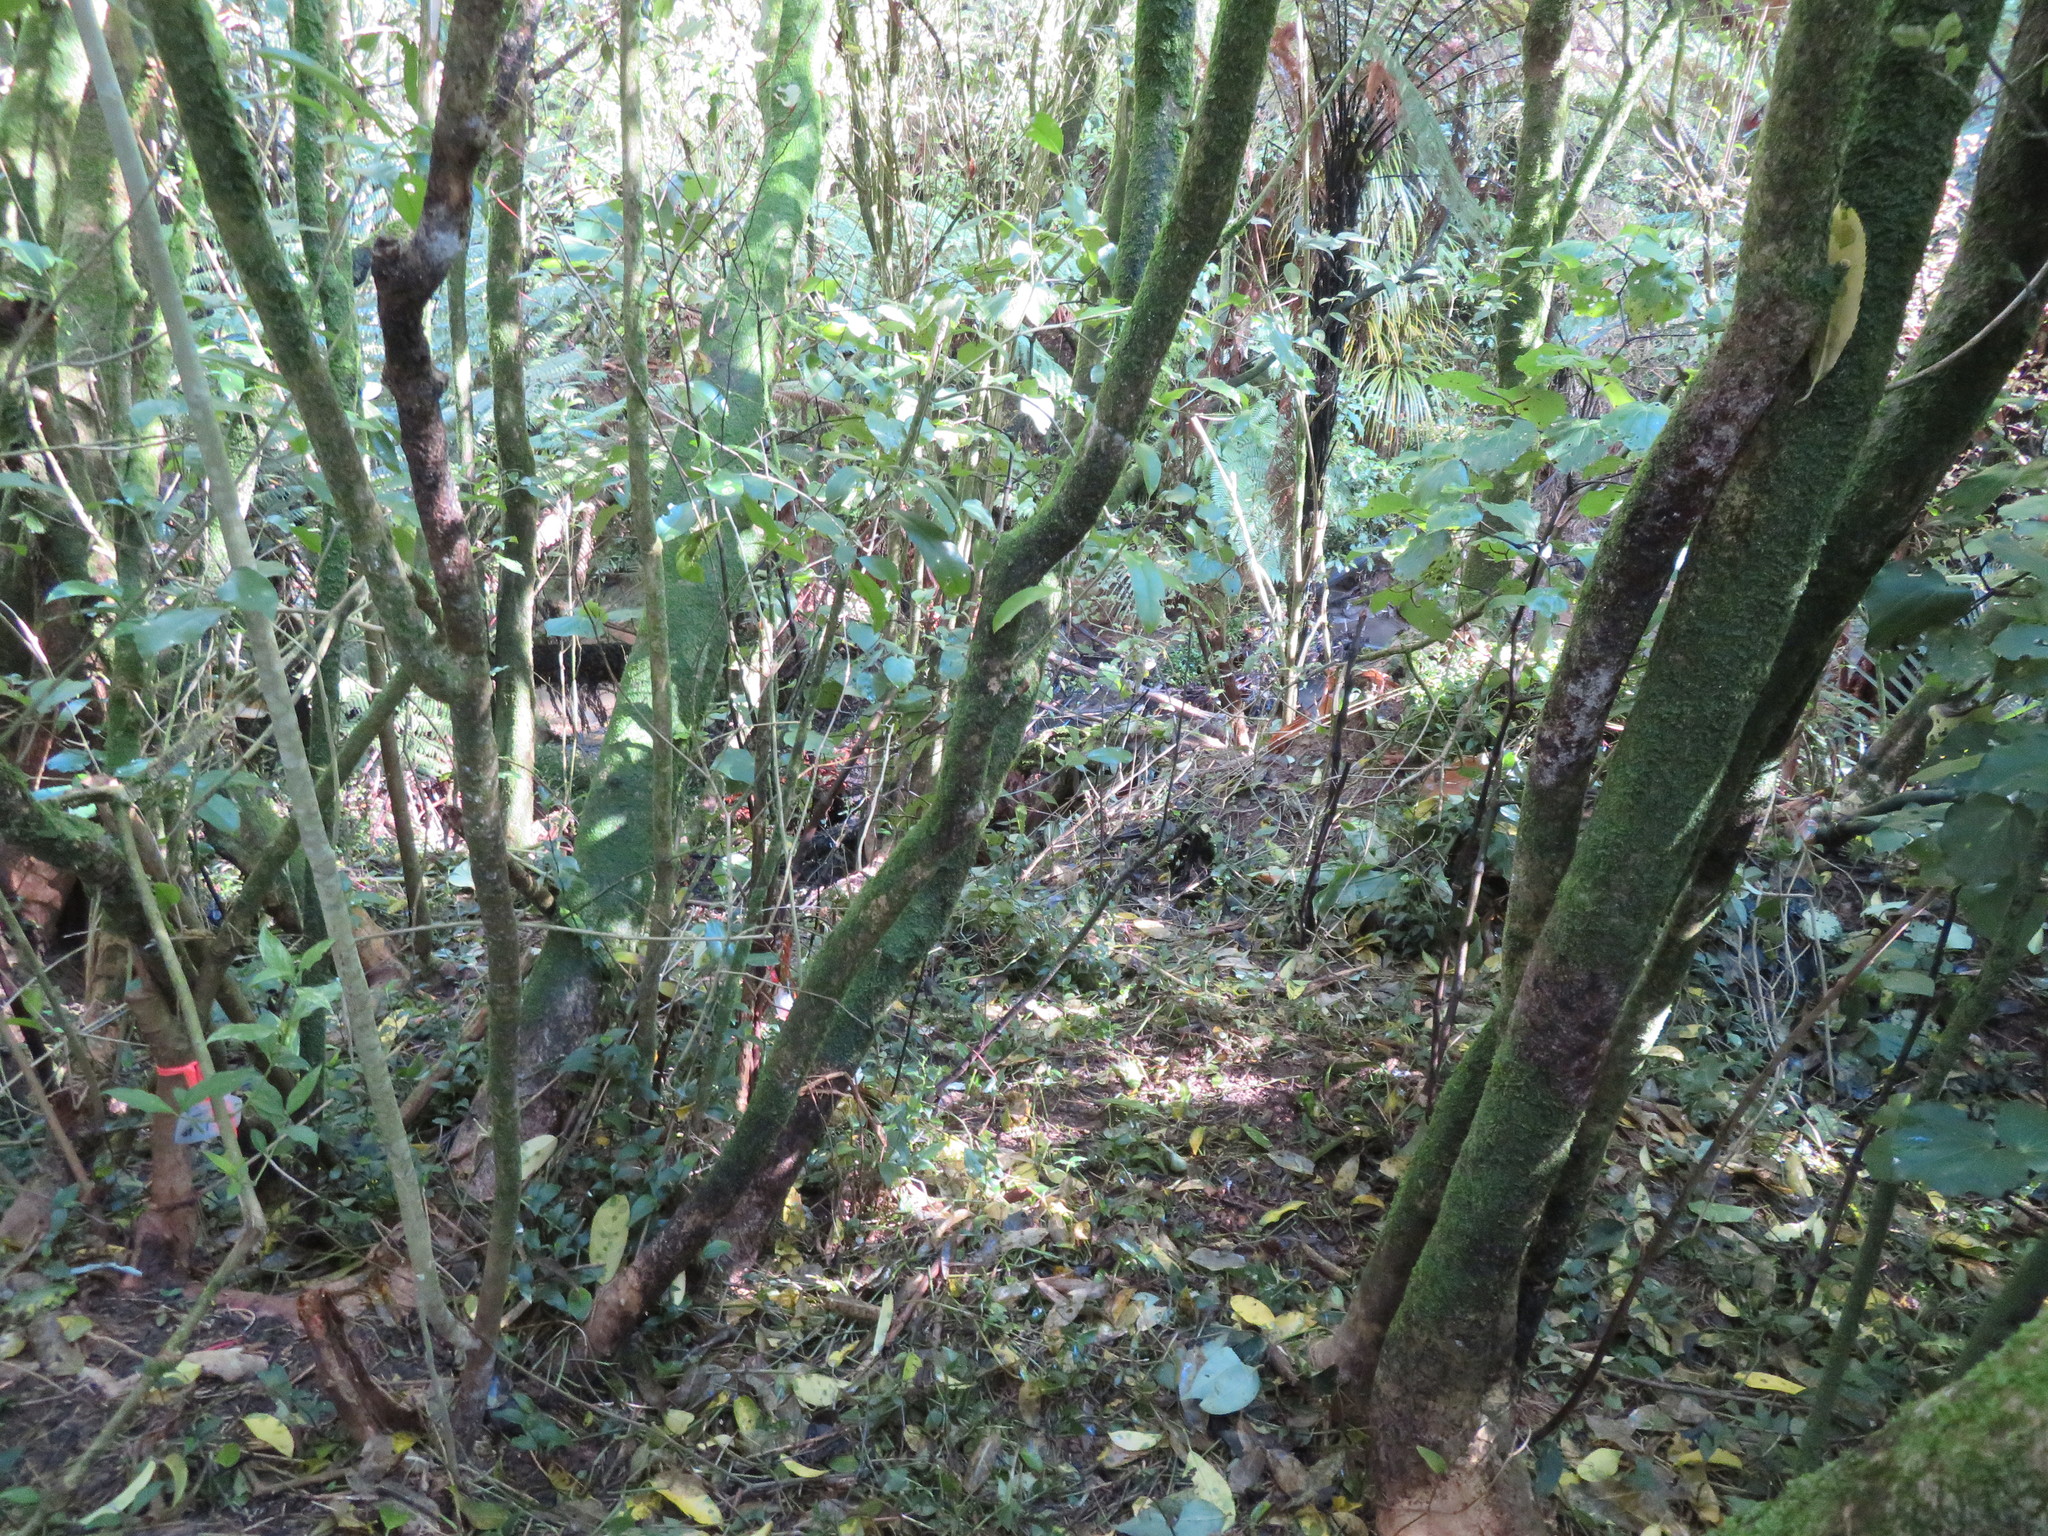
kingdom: Plantae
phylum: Tracheophyta
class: Magnoliopsida
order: Malpighiales
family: Violaceae
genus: Melicytus
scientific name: Melicytus ramiflorus
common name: Mahoe
